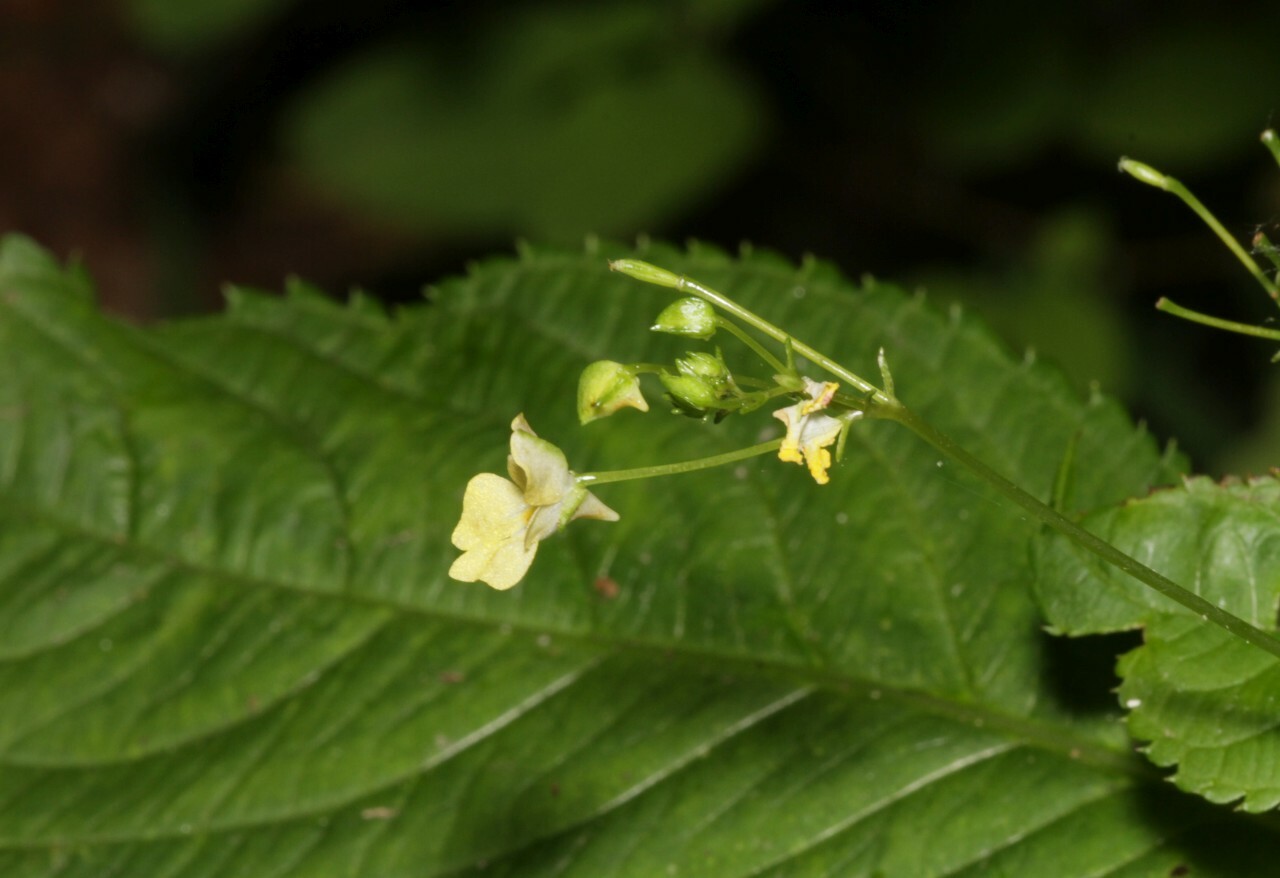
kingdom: Plantae
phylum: Tracheophyta
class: Magnoliopsida
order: Ericales
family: Balsaminaceae
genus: Impatiens
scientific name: Impatiens parviflora
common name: Small balsam
